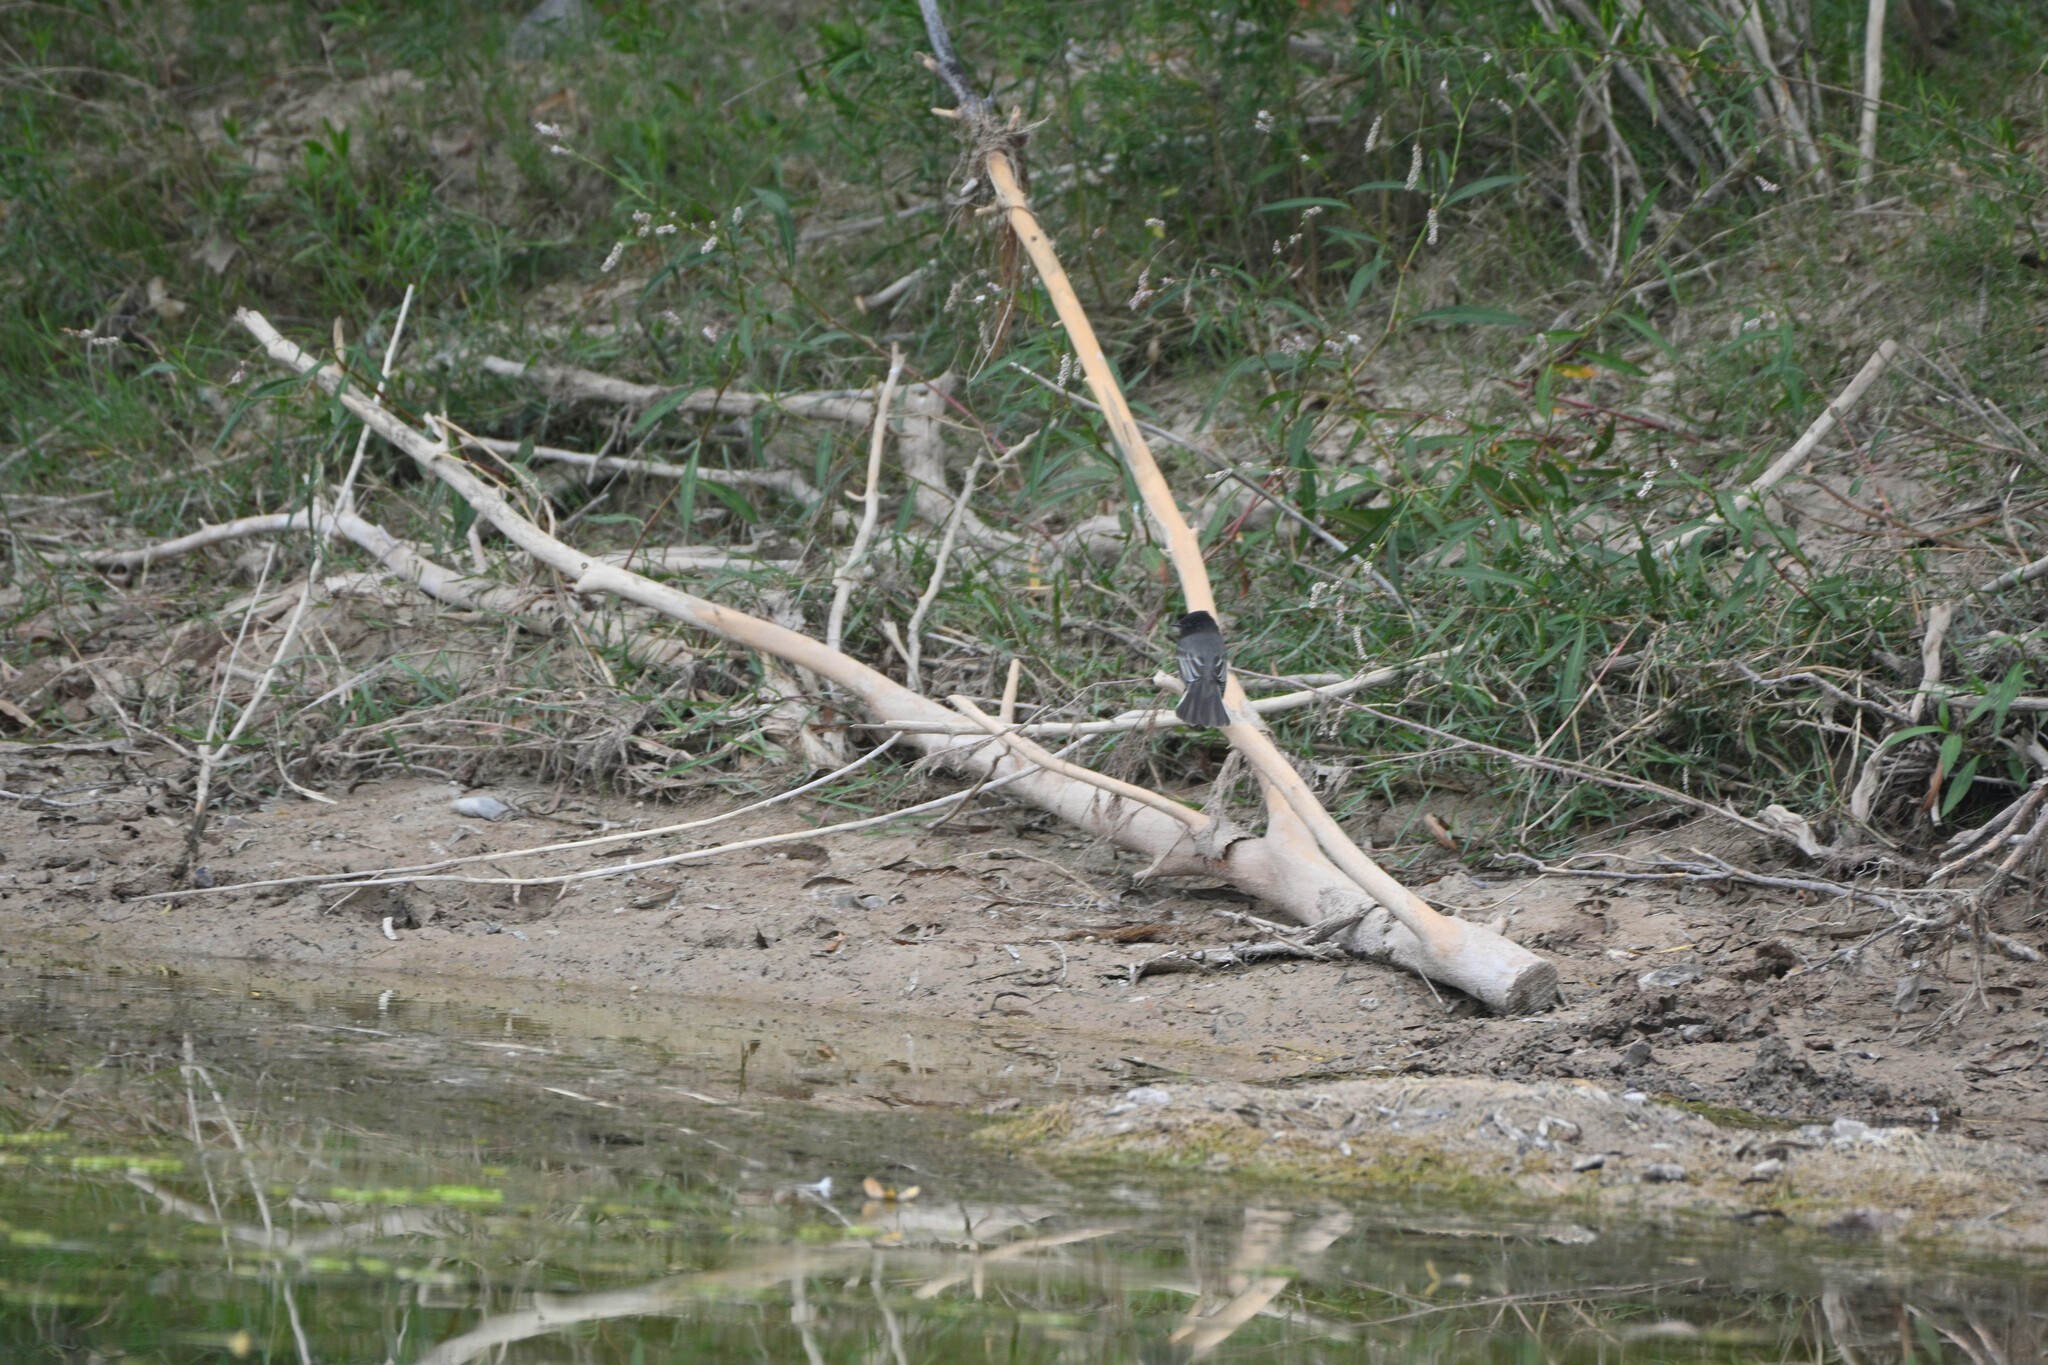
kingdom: Animalia
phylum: Chordata
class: Aves
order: Passeriformes
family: Tyrannidae
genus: Sayornis
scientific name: Sayornis nigricans
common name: Black phoebe
